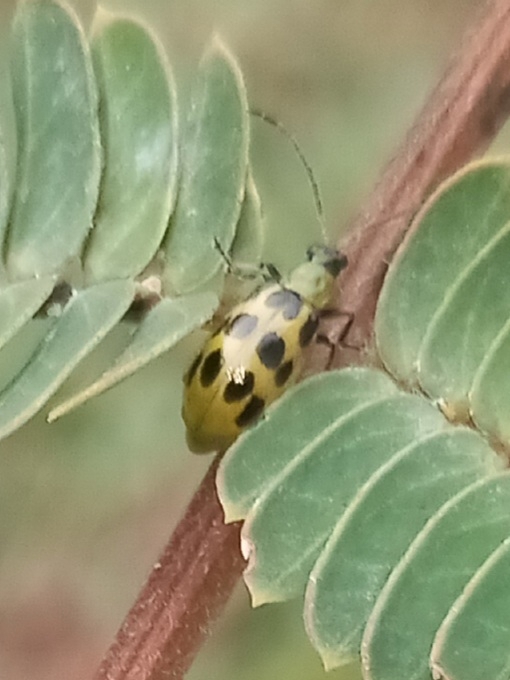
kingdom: Animalia
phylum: Arthropoda
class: Insecta
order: Coleoptera
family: Chrysomelidae
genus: Diabrotica
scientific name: Diabrotica undecimpunctata
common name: Spotted cucumber beetle
